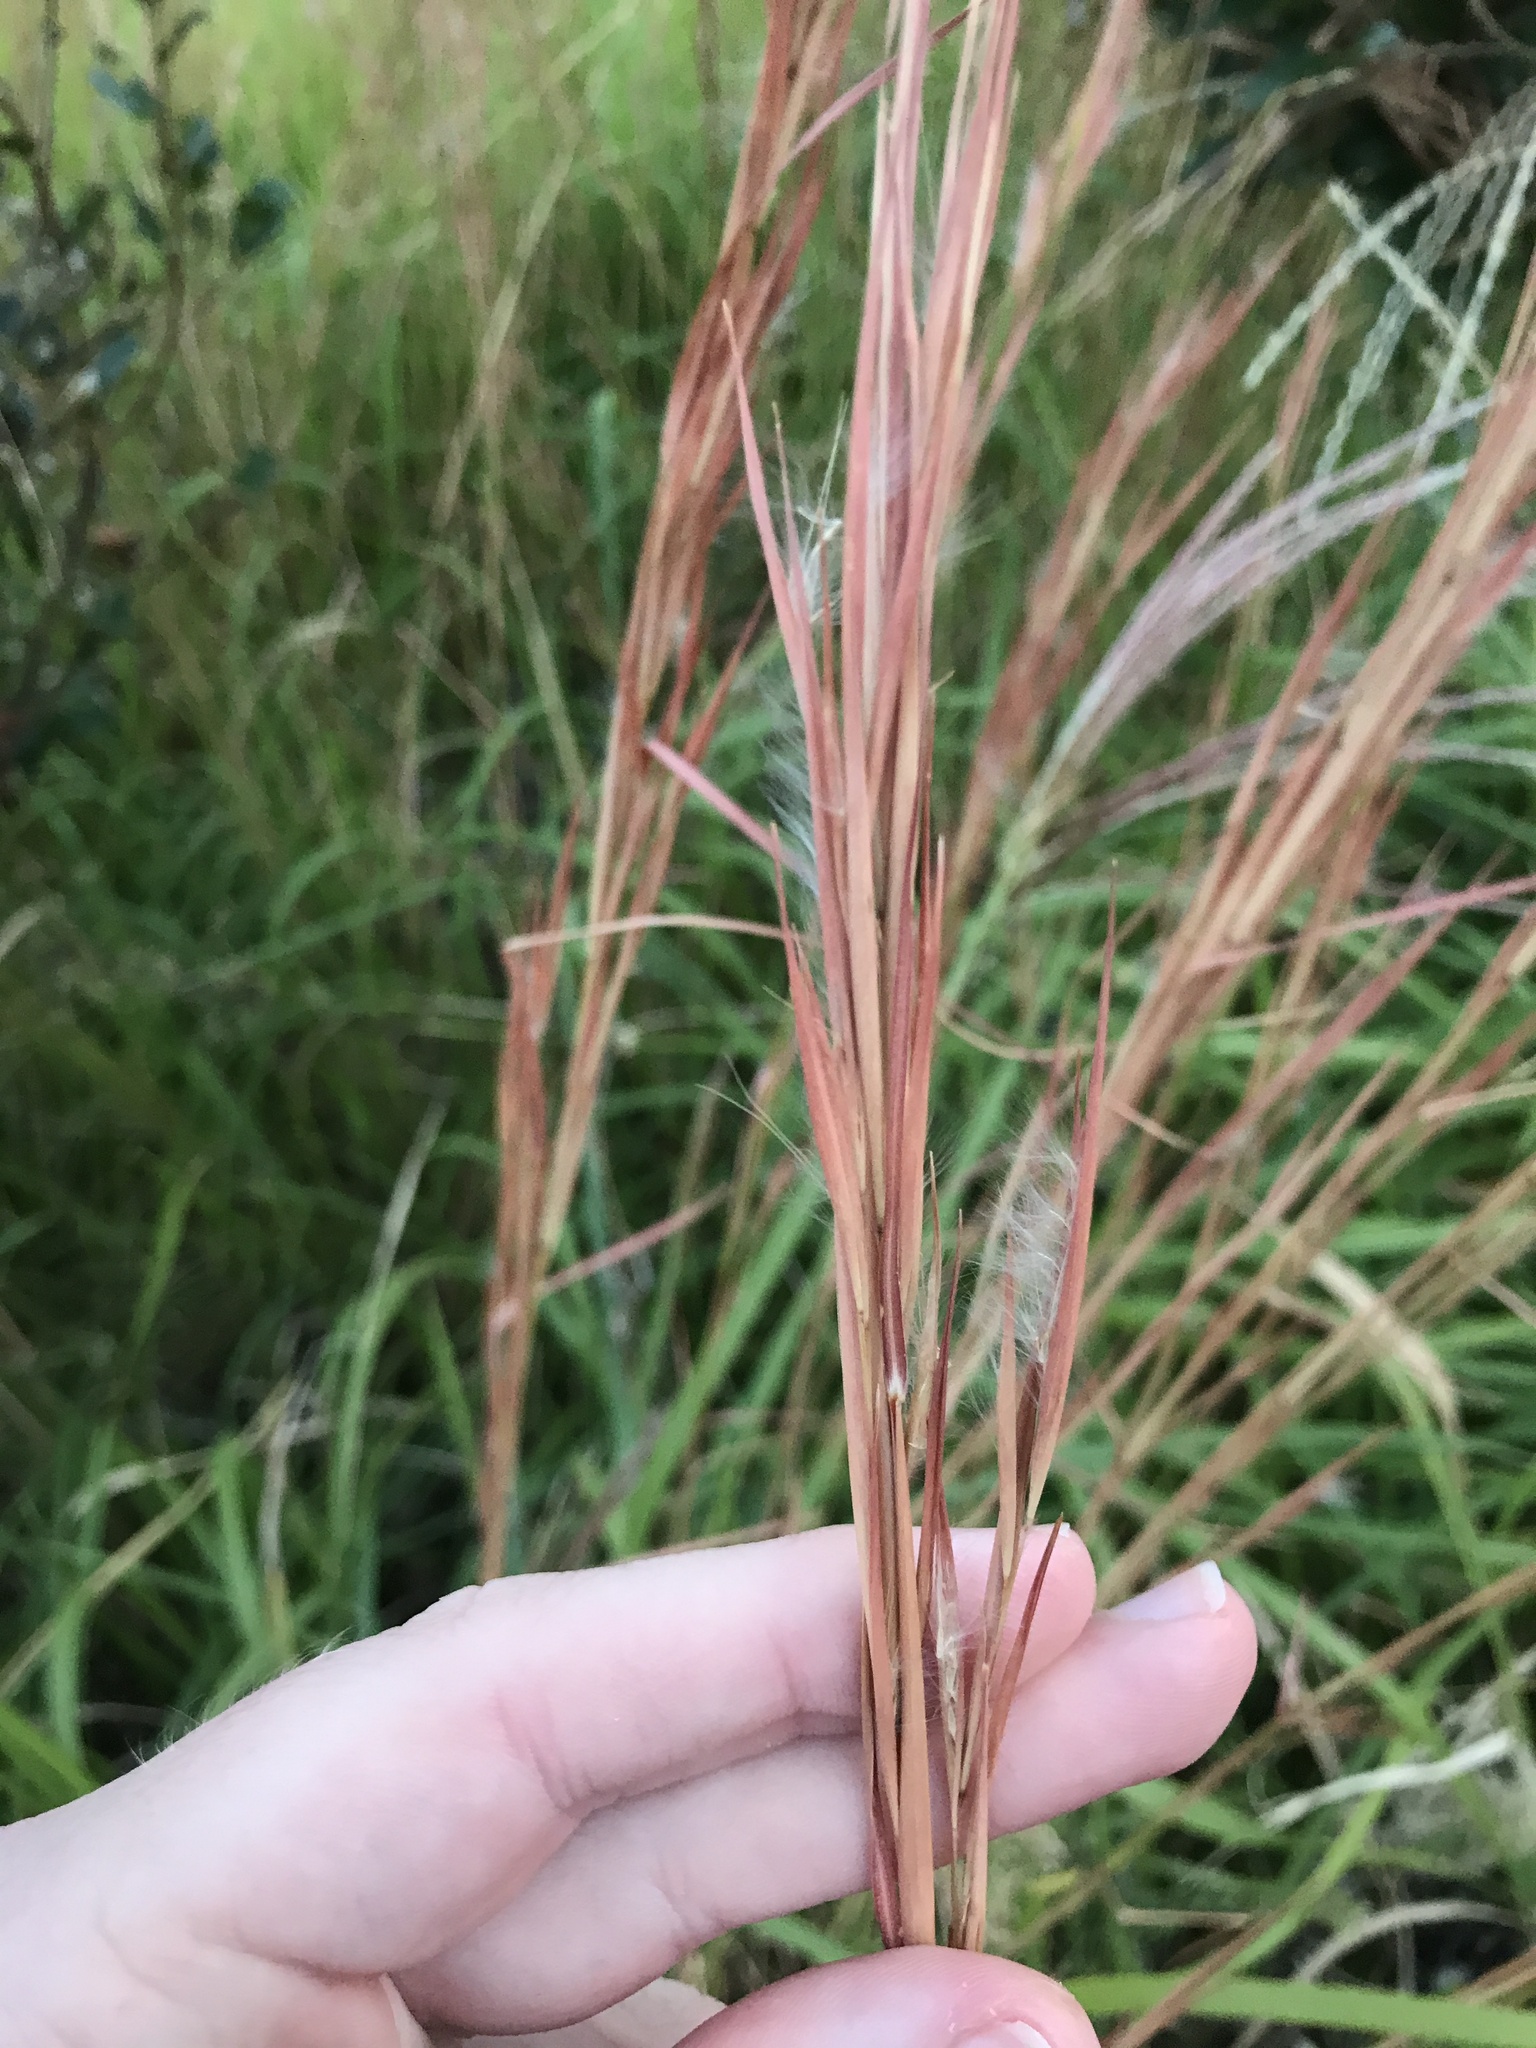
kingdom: Plantae
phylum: Tracheophyta
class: Liliopsida
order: Poales
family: Poaceae
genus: Andropogon
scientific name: Andropogon virginicus
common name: Broomsedge bluestem
